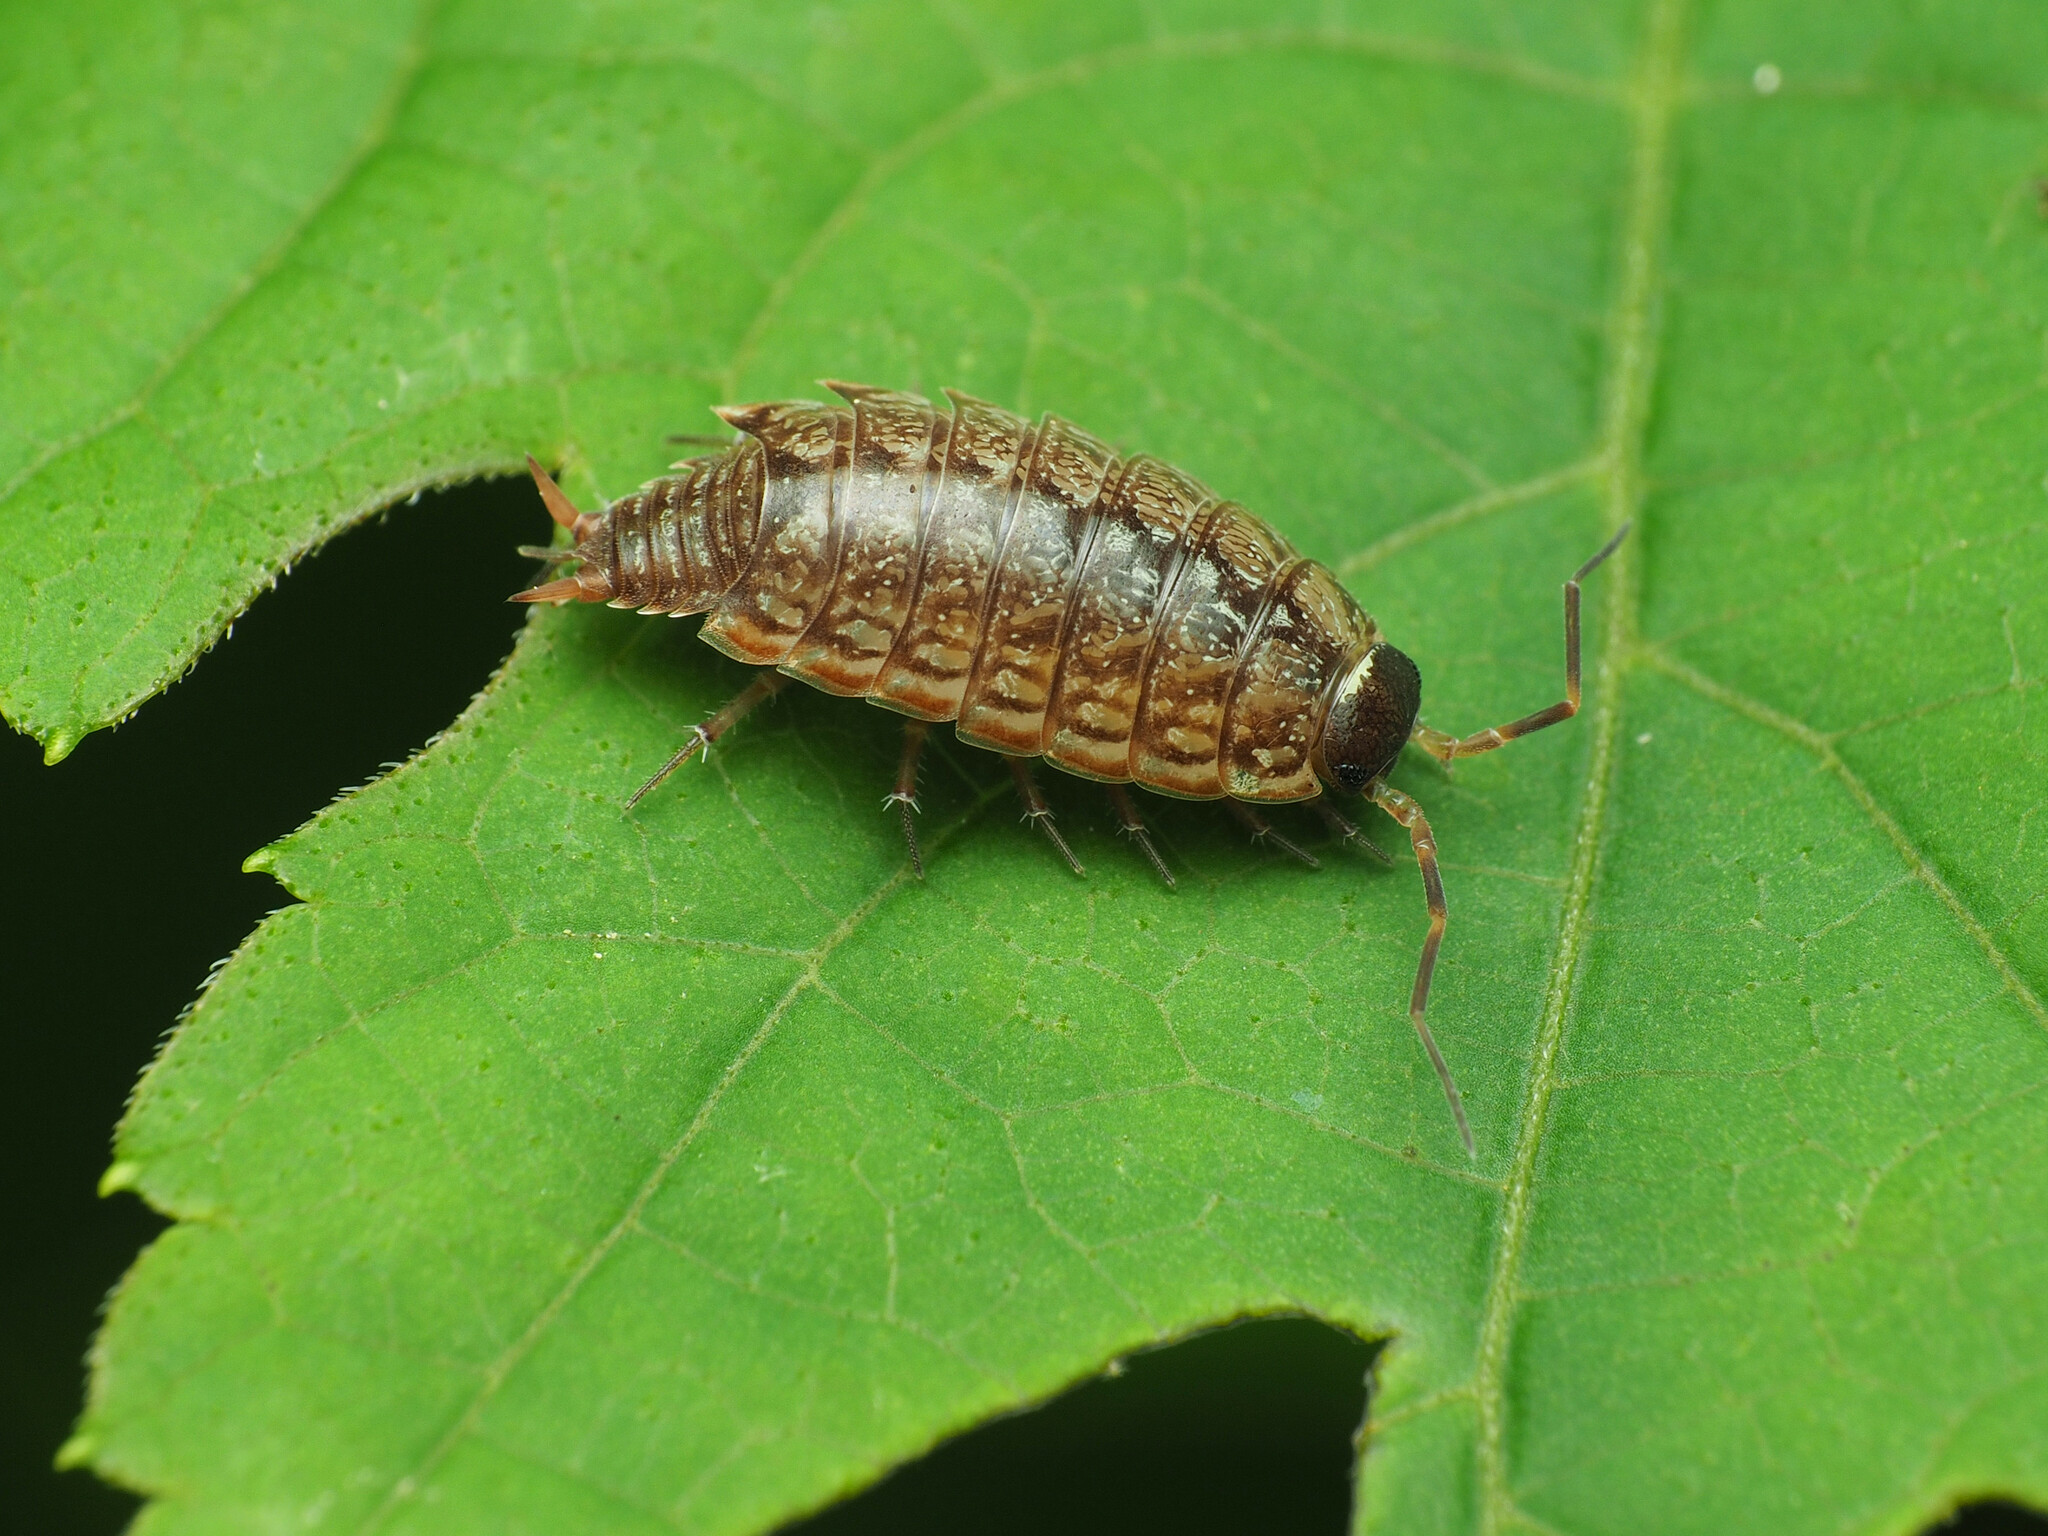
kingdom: Animalia
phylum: Arthropoda
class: Malacostraca
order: Isopoda
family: Philosciidae
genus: Philoscia
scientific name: Philoscia muscorum
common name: Common striped woodlouse
